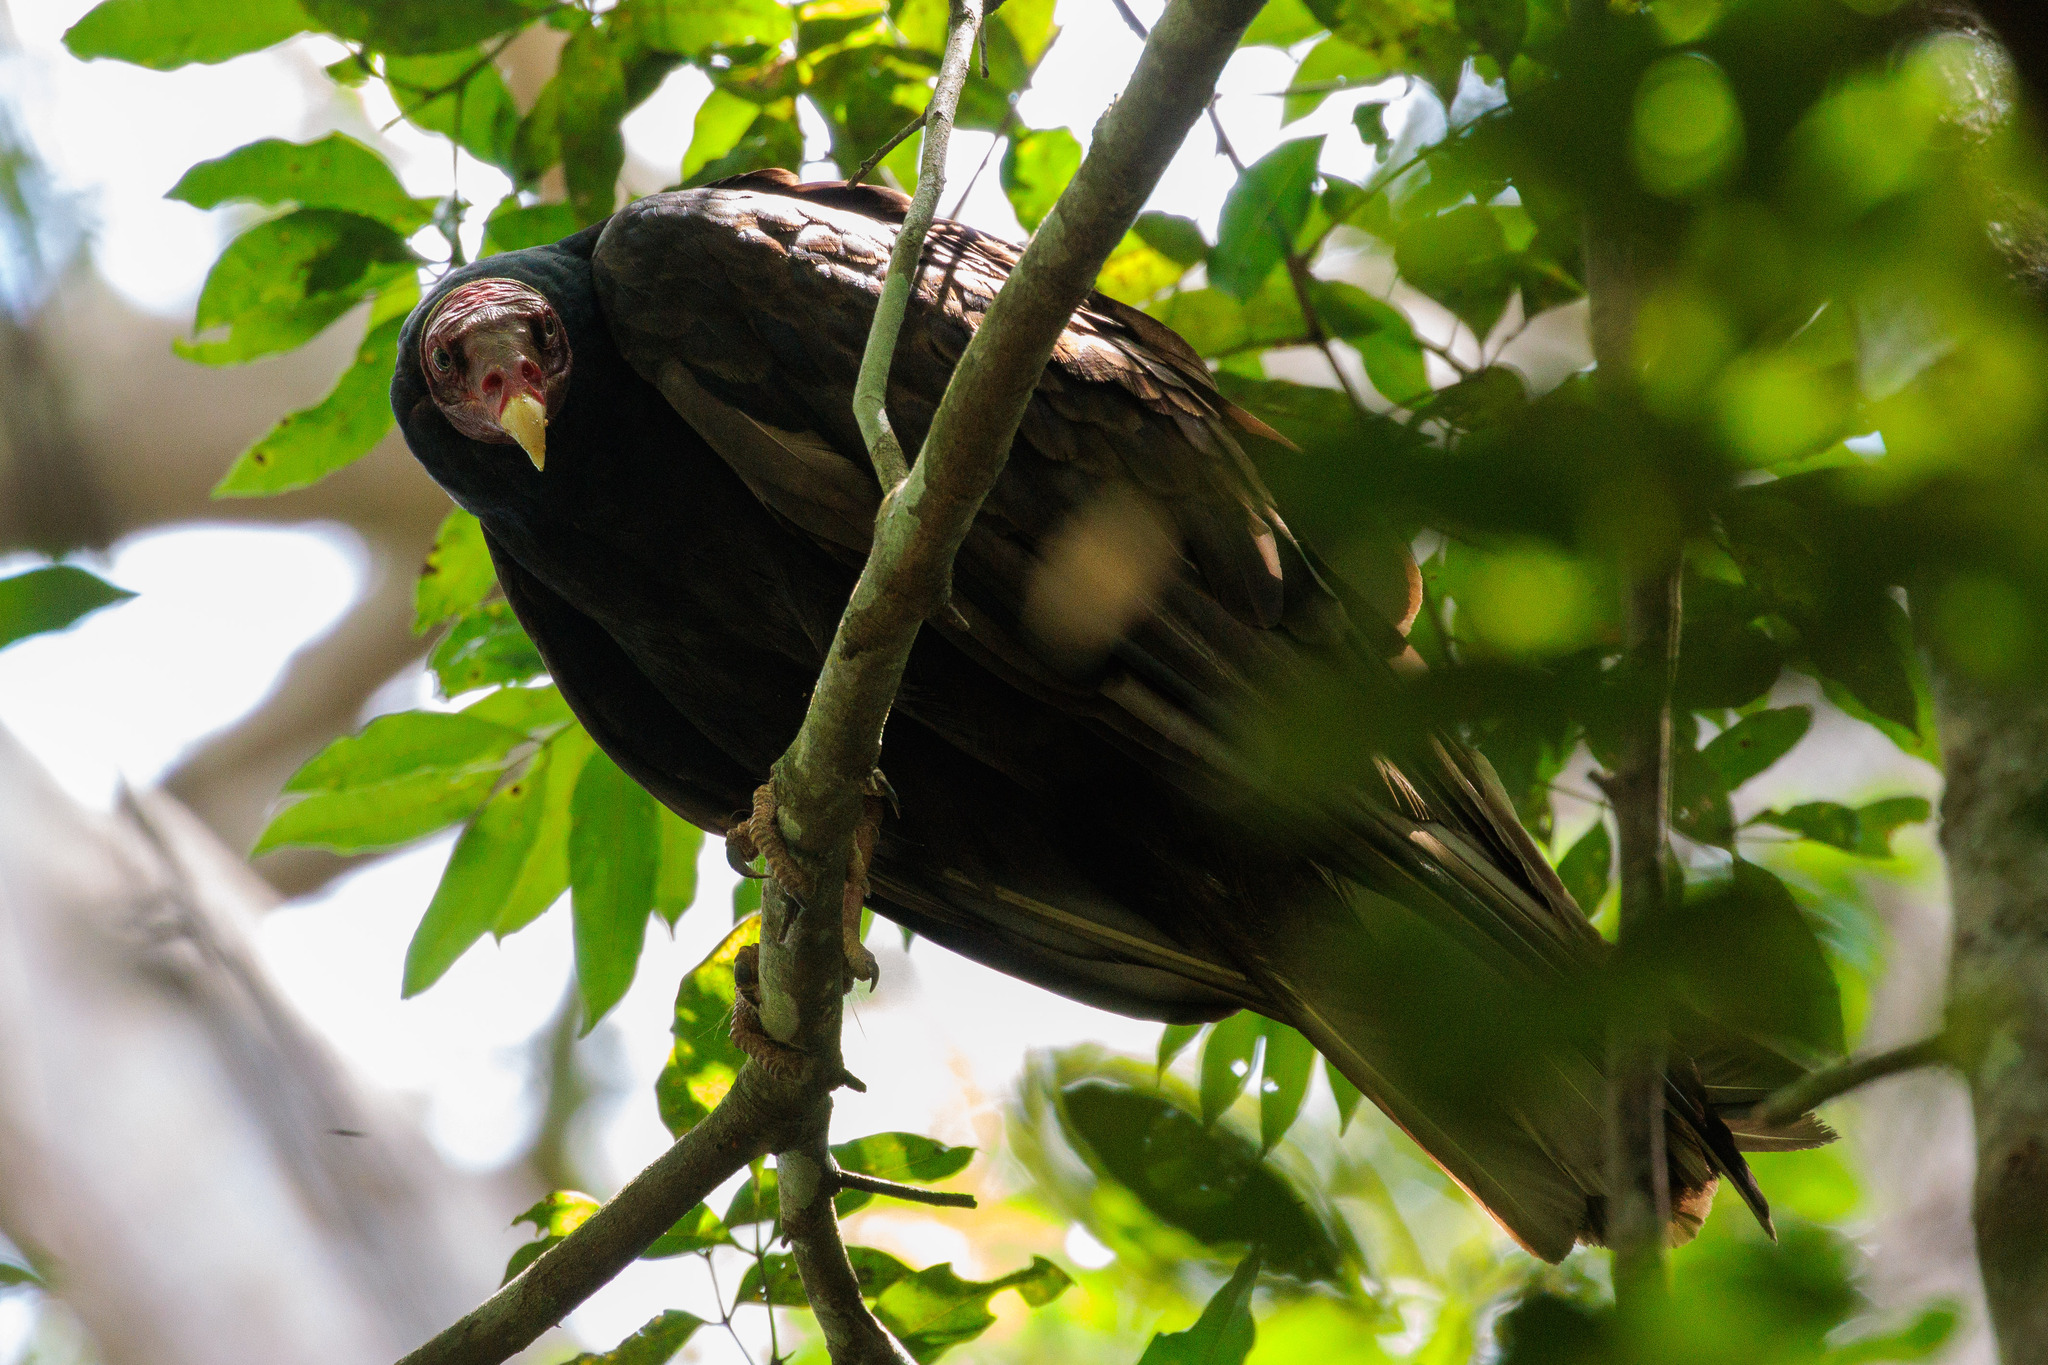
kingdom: Animalia
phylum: Chordata
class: Aves
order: Accipitriformes
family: Cathartidae
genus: Cathartes
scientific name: Cathartes aura
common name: Turkey vulture
